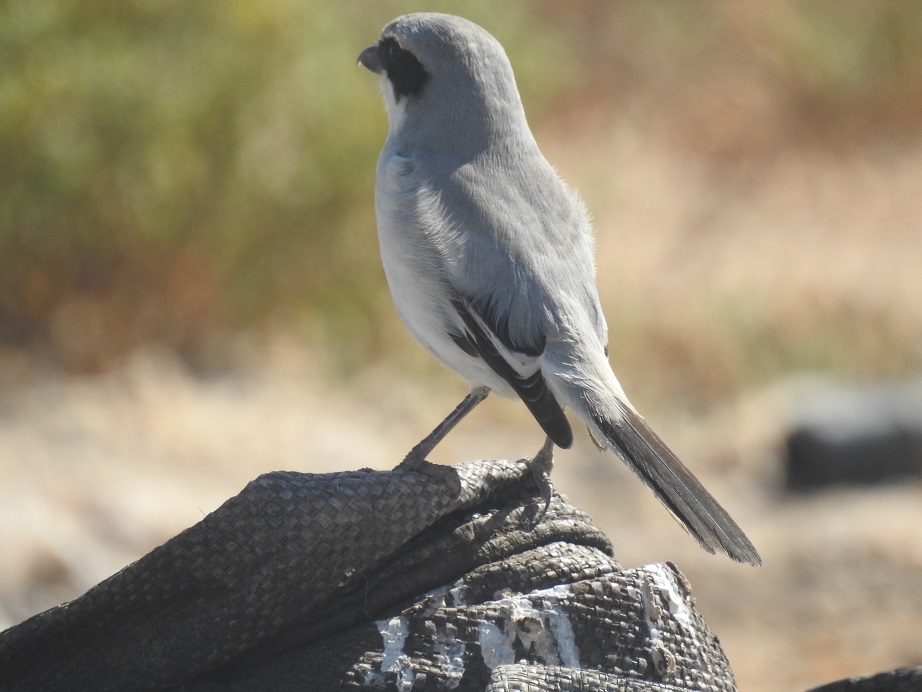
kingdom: Animalia
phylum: Chordata
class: Aves
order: Passeriformes
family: Laniidae
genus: Lanius
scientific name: Lanius excubitor
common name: Great grey shrike
